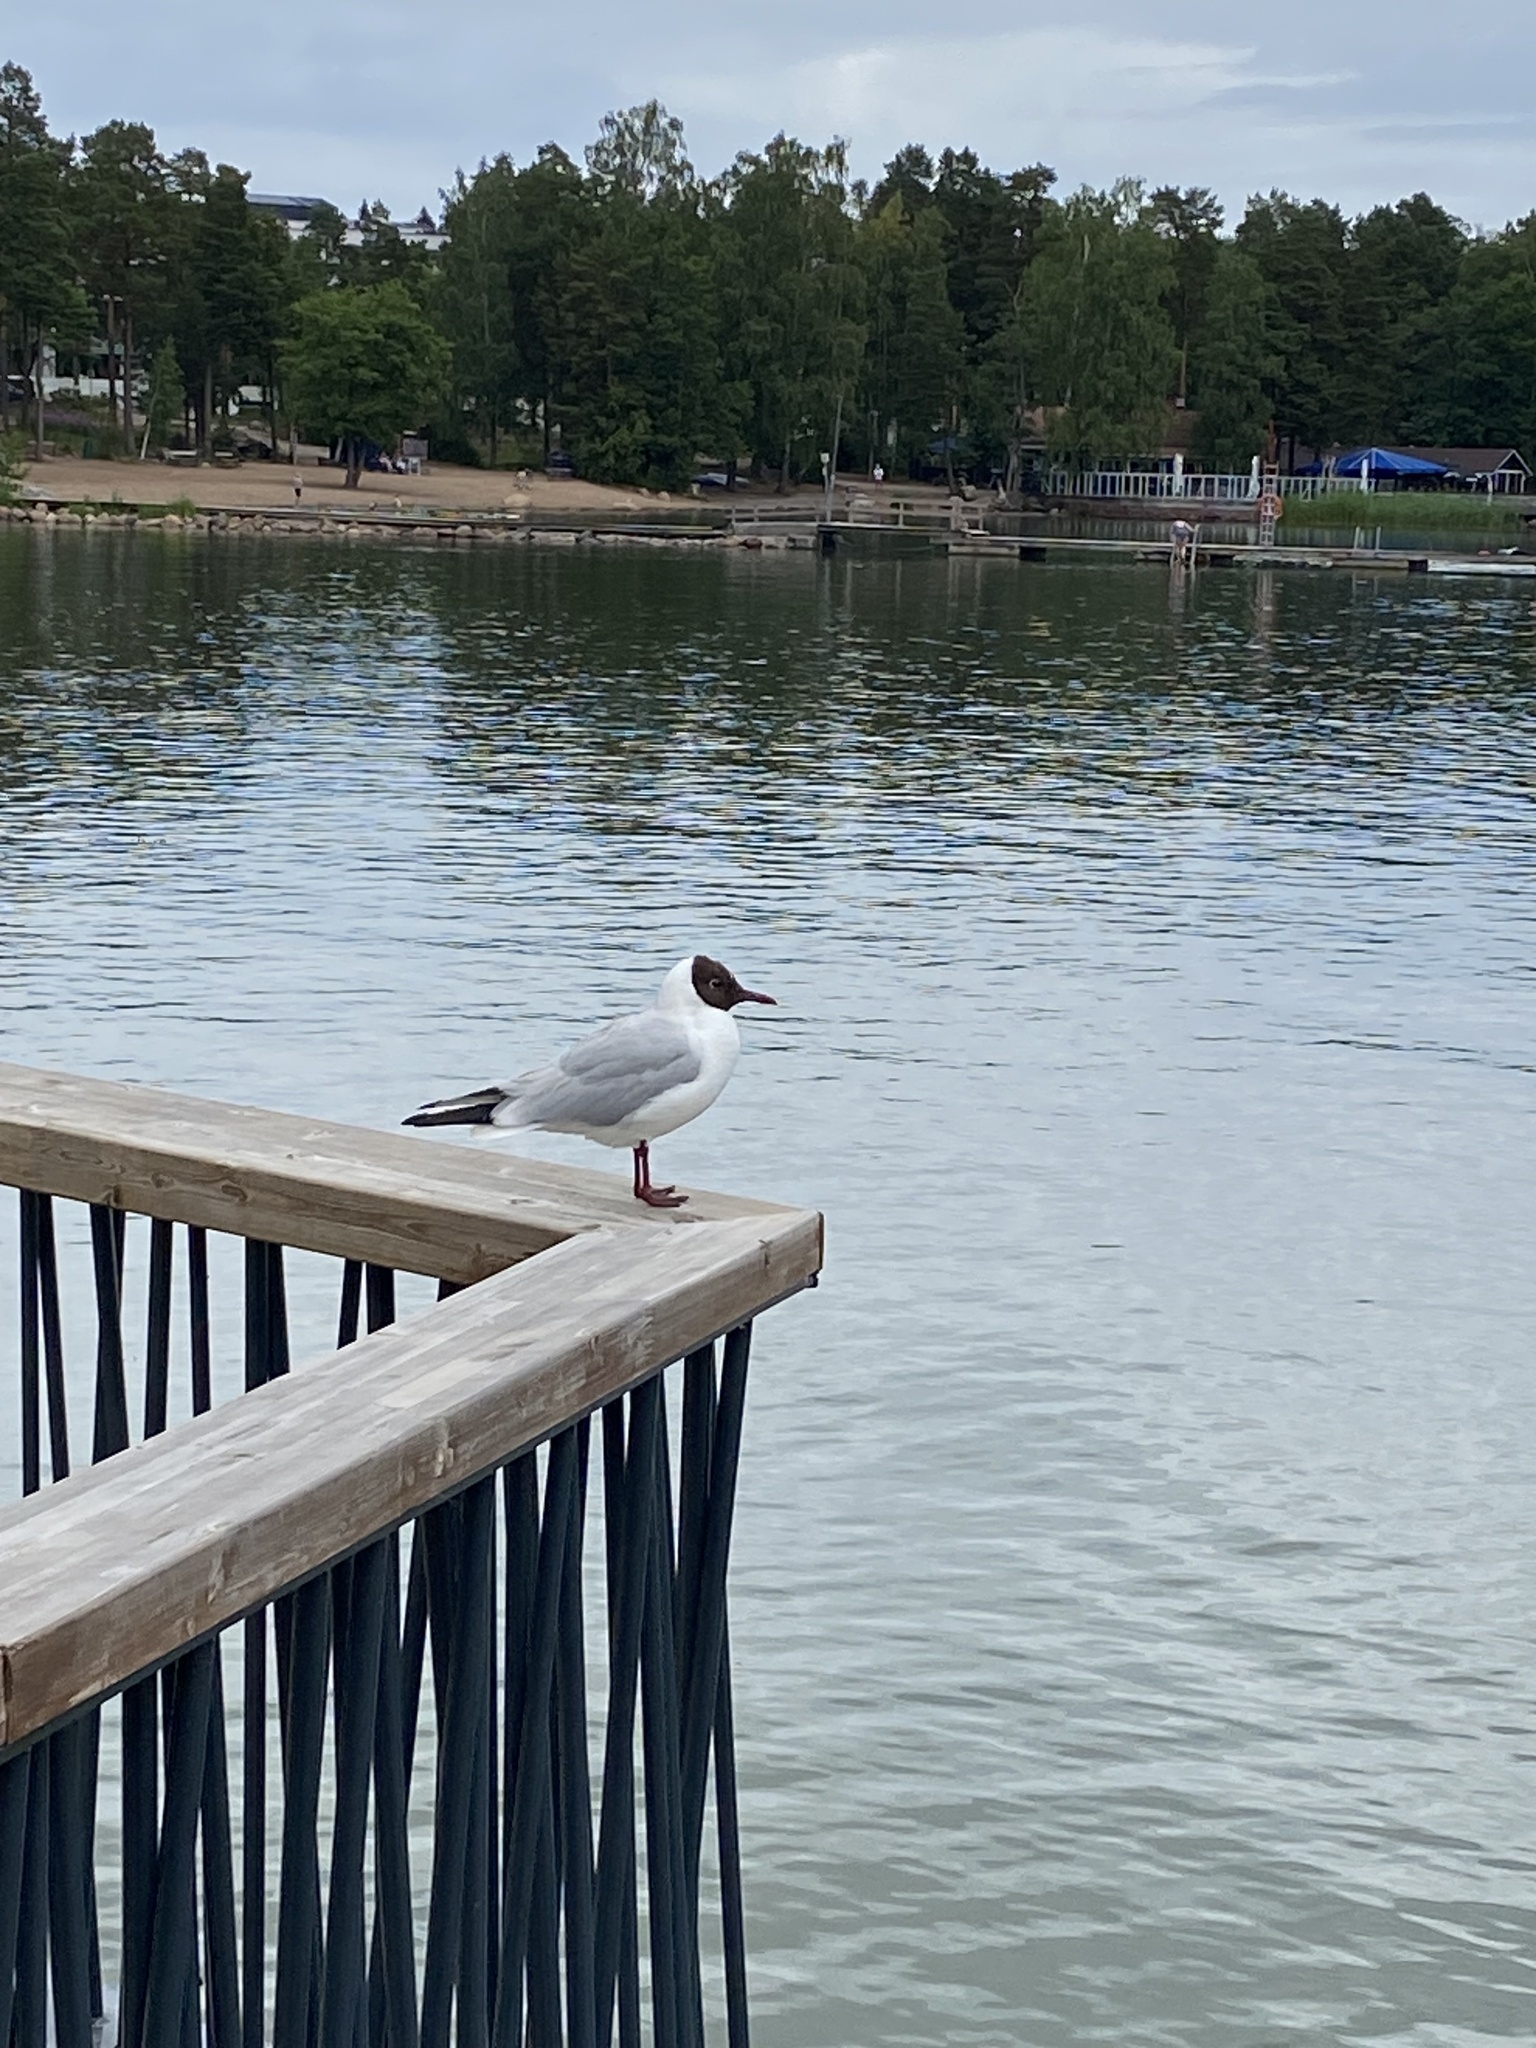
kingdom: Animalia
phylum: Chordata
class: Aves
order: Charadriiformes
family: Laridae
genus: Chroicocephalus
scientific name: Chroicocephalus ridibundus
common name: Black-headed gull
